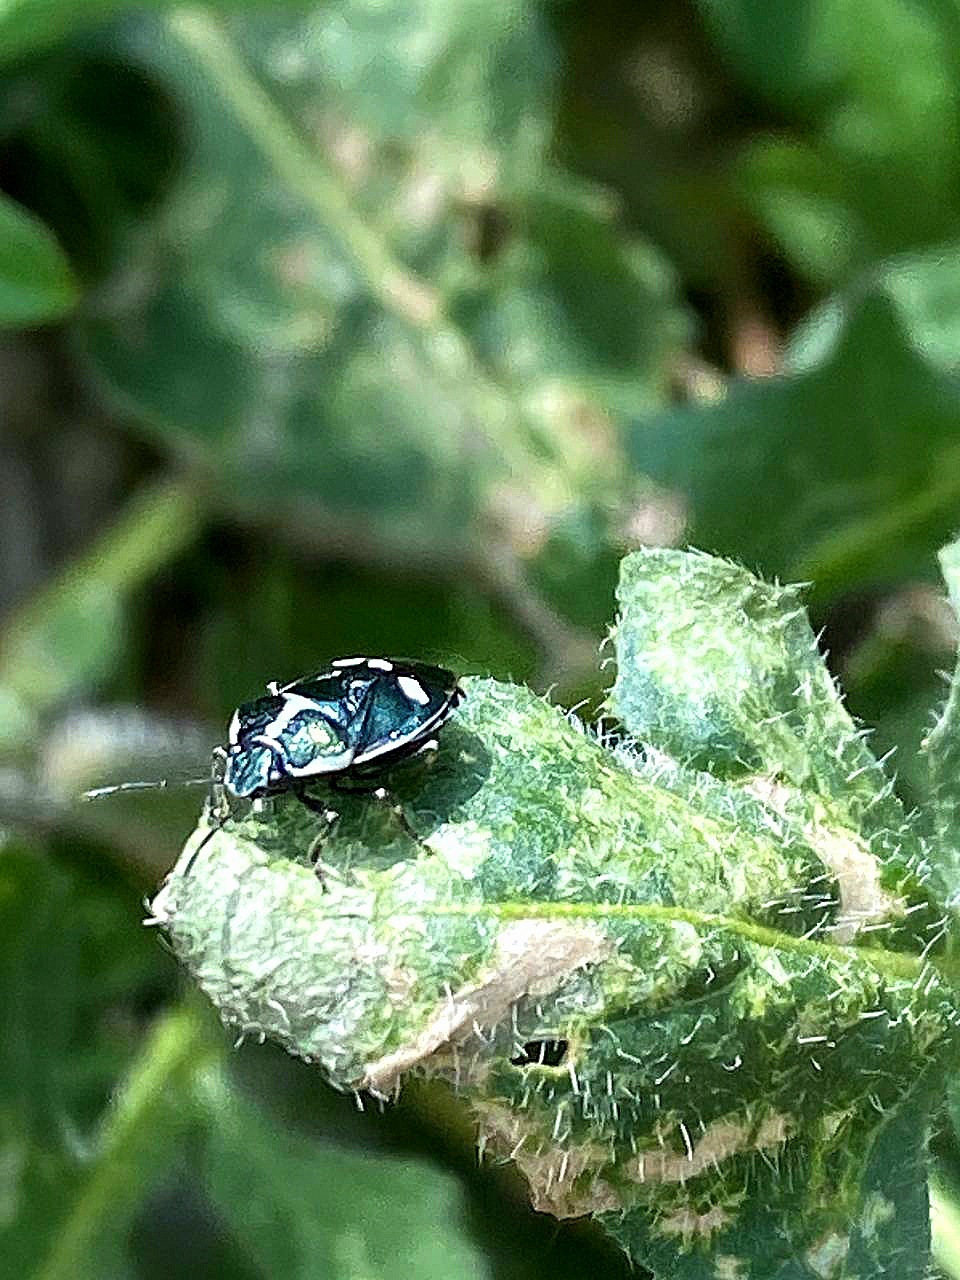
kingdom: Animalia
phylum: Arthropoda
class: Insecta
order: Hemiptera
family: Pentatomidae
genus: Eurydema
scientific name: Eurydema oleracea
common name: Cabbage bug
